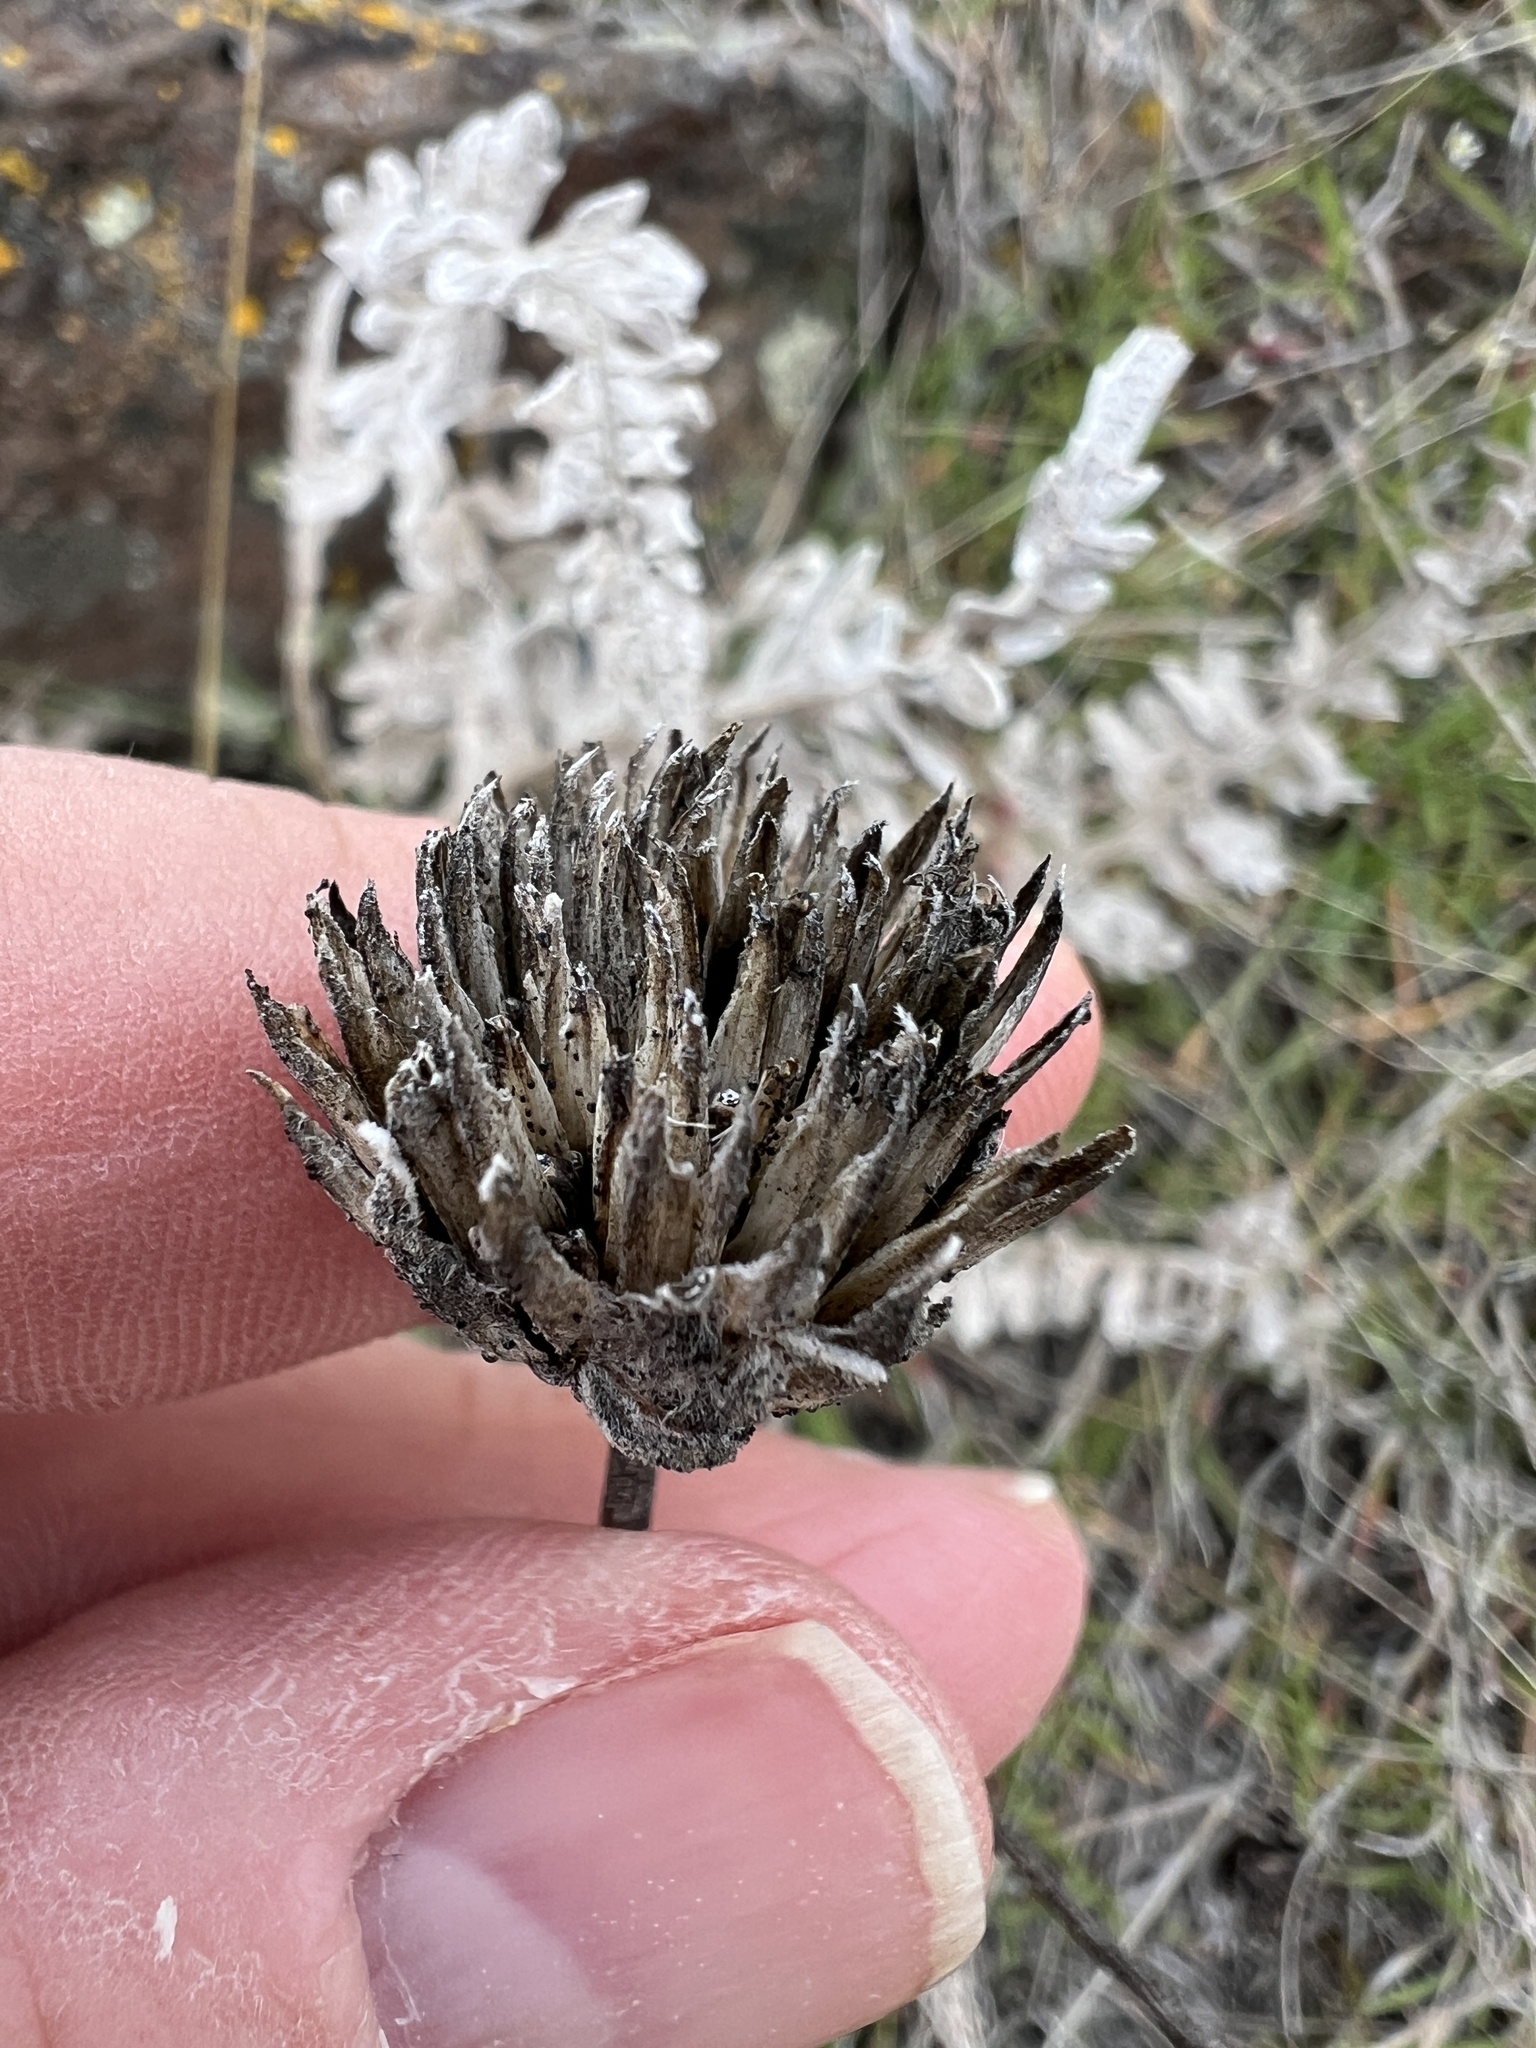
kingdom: Plantae
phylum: Tracheophyta
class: Magnoliopsida
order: Asterales
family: Asteraceae
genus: Balsamorhiza
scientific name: Balsamorhiza hookeri
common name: Hooker's balsamroot
